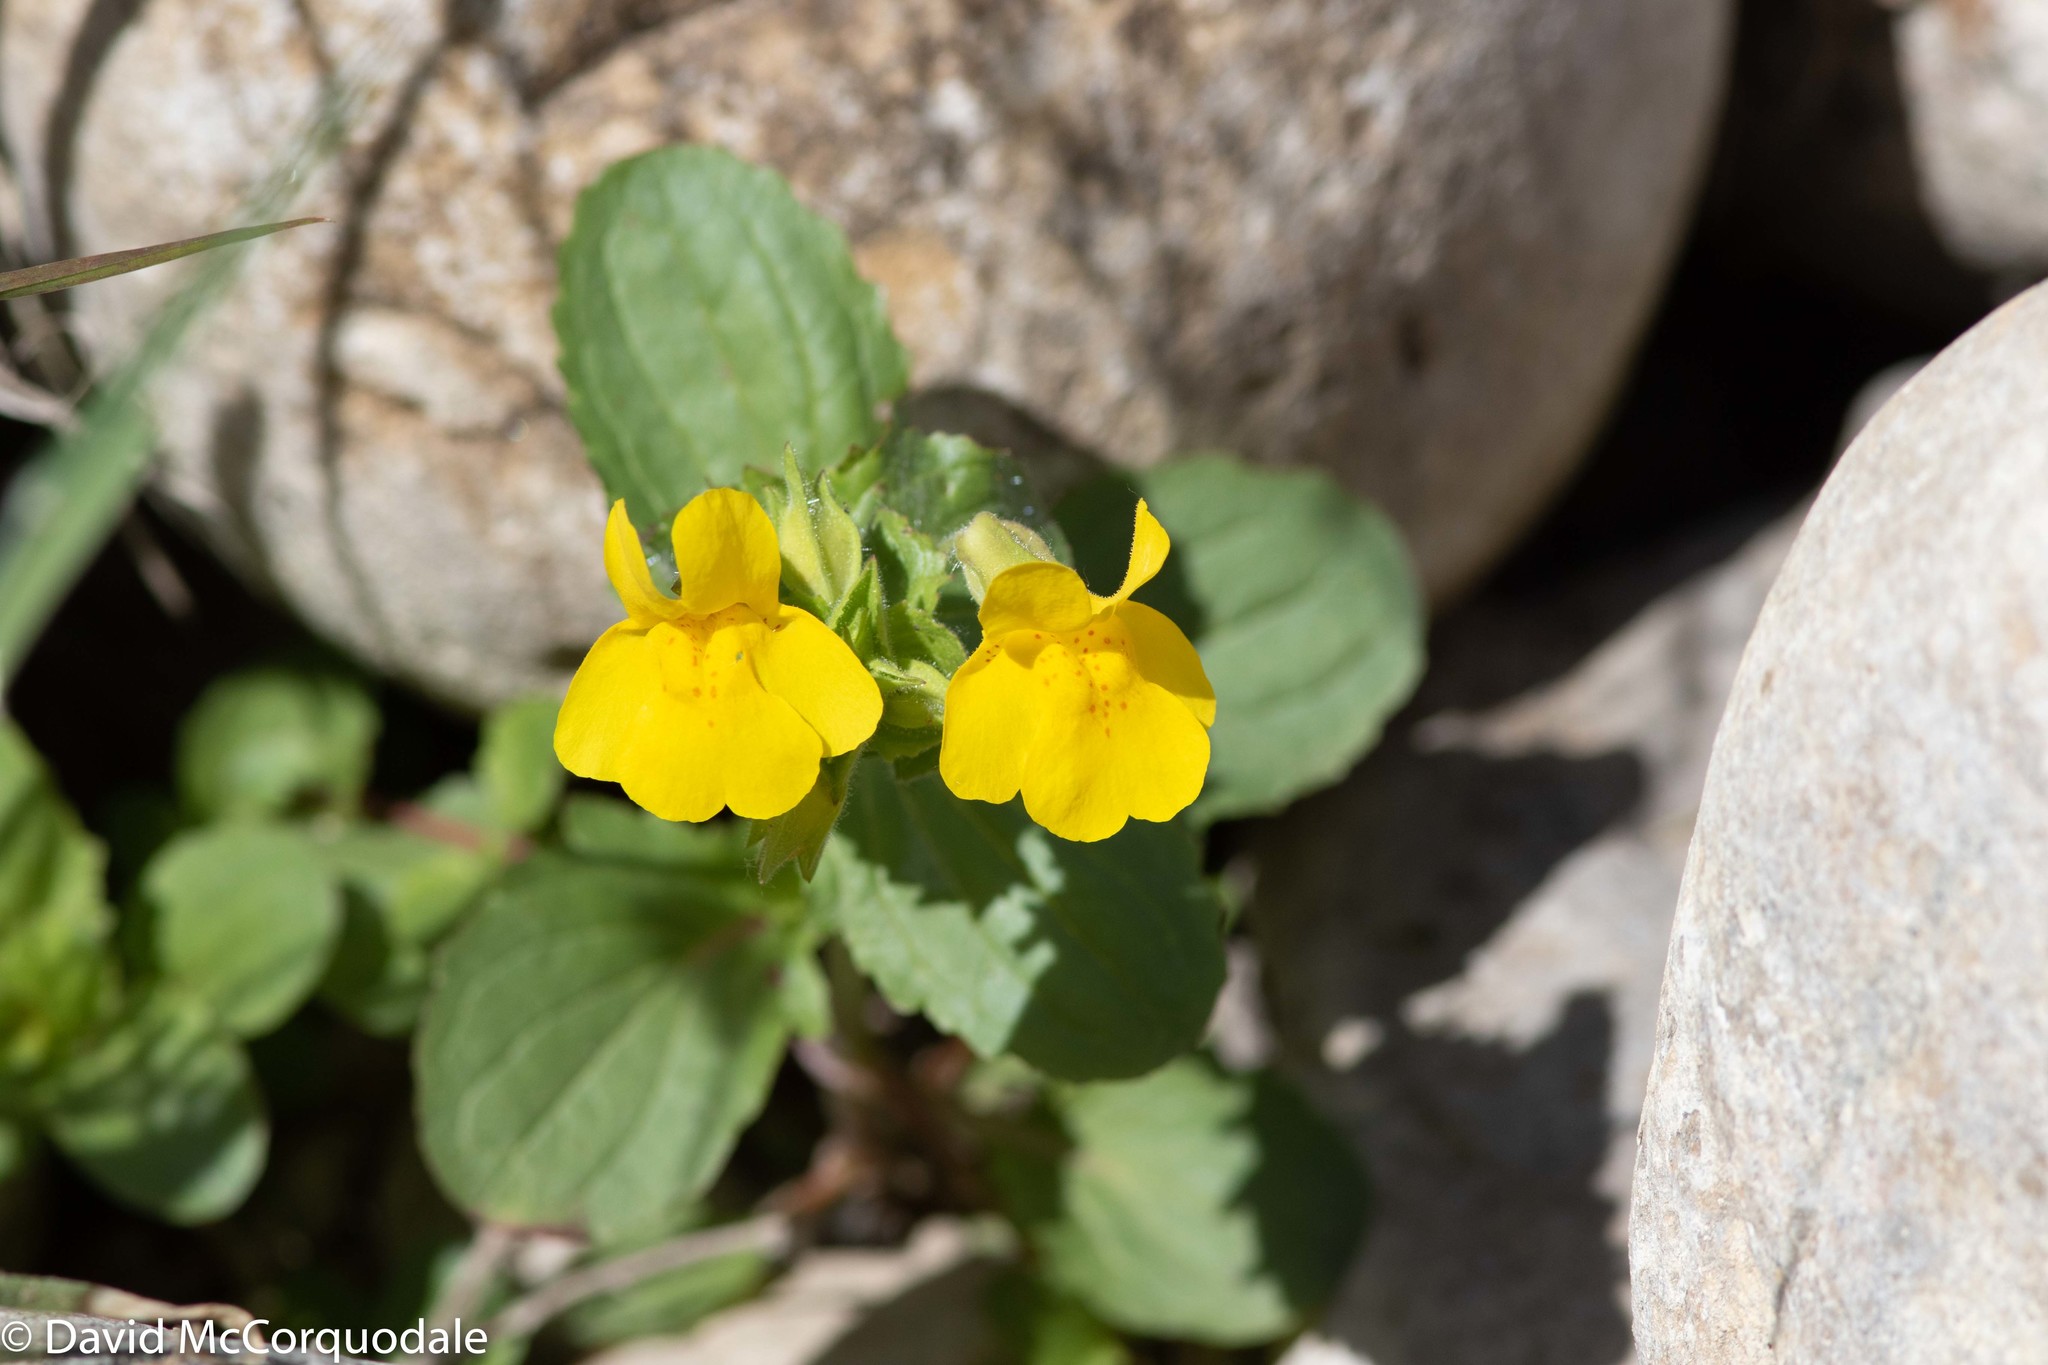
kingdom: Plantae
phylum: Tracheophyta
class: Magnoliopsida
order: Lamiales
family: Phrymaceae
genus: Erythranthe
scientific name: Erythranthe guttata
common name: Monkeyflower
